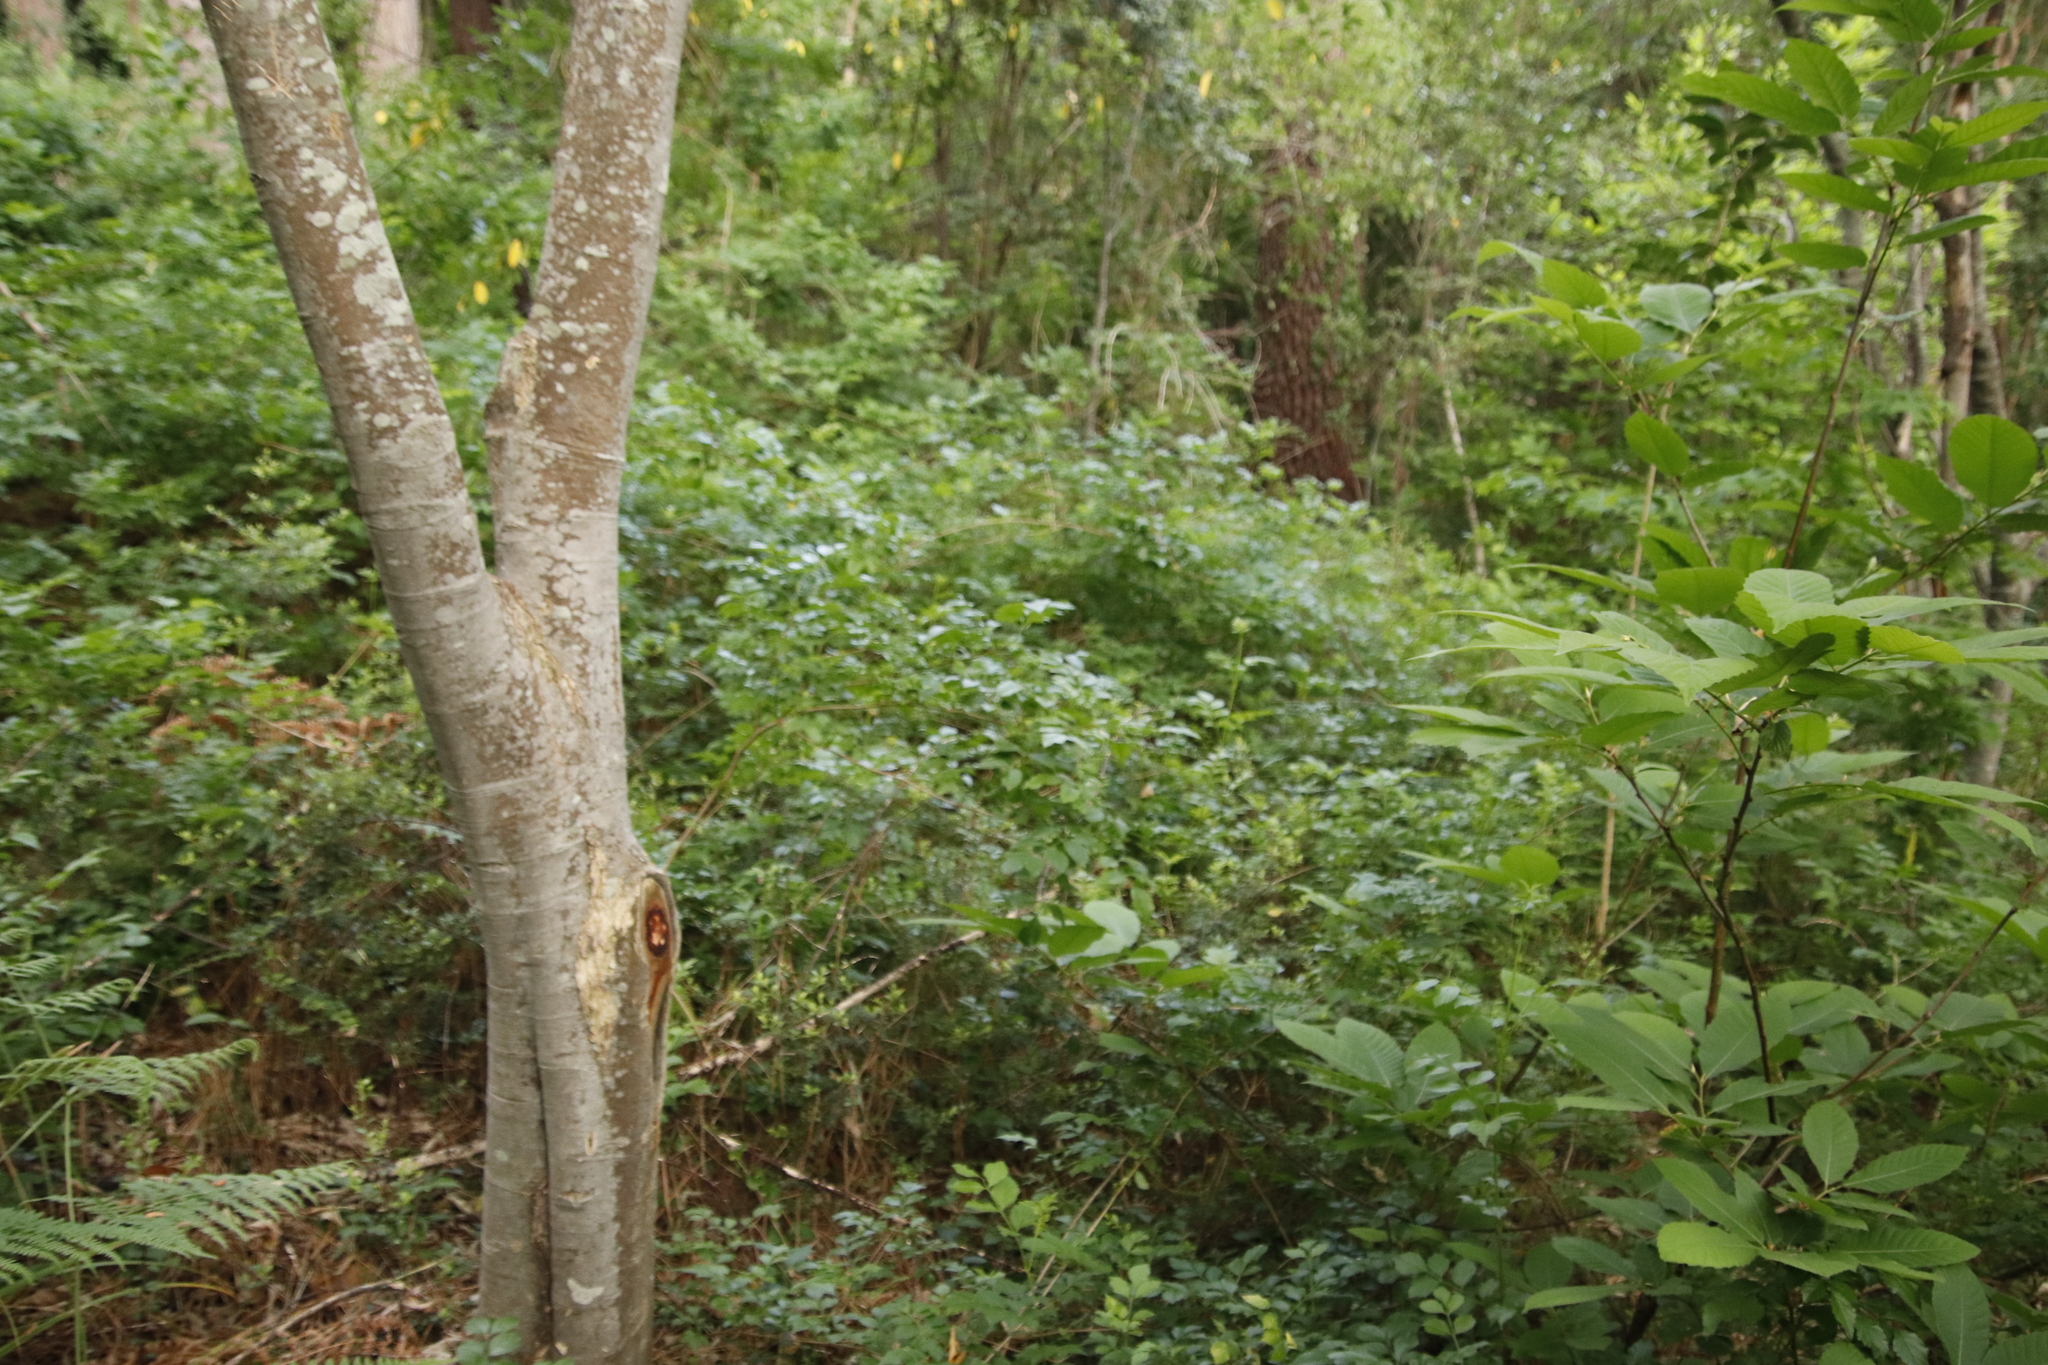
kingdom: Plantae
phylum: Tracheophyta
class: Magnoliopsida
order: Lamiales
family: Bignoniaceae
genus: Tecomaria
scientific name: Tecomaria capensis
